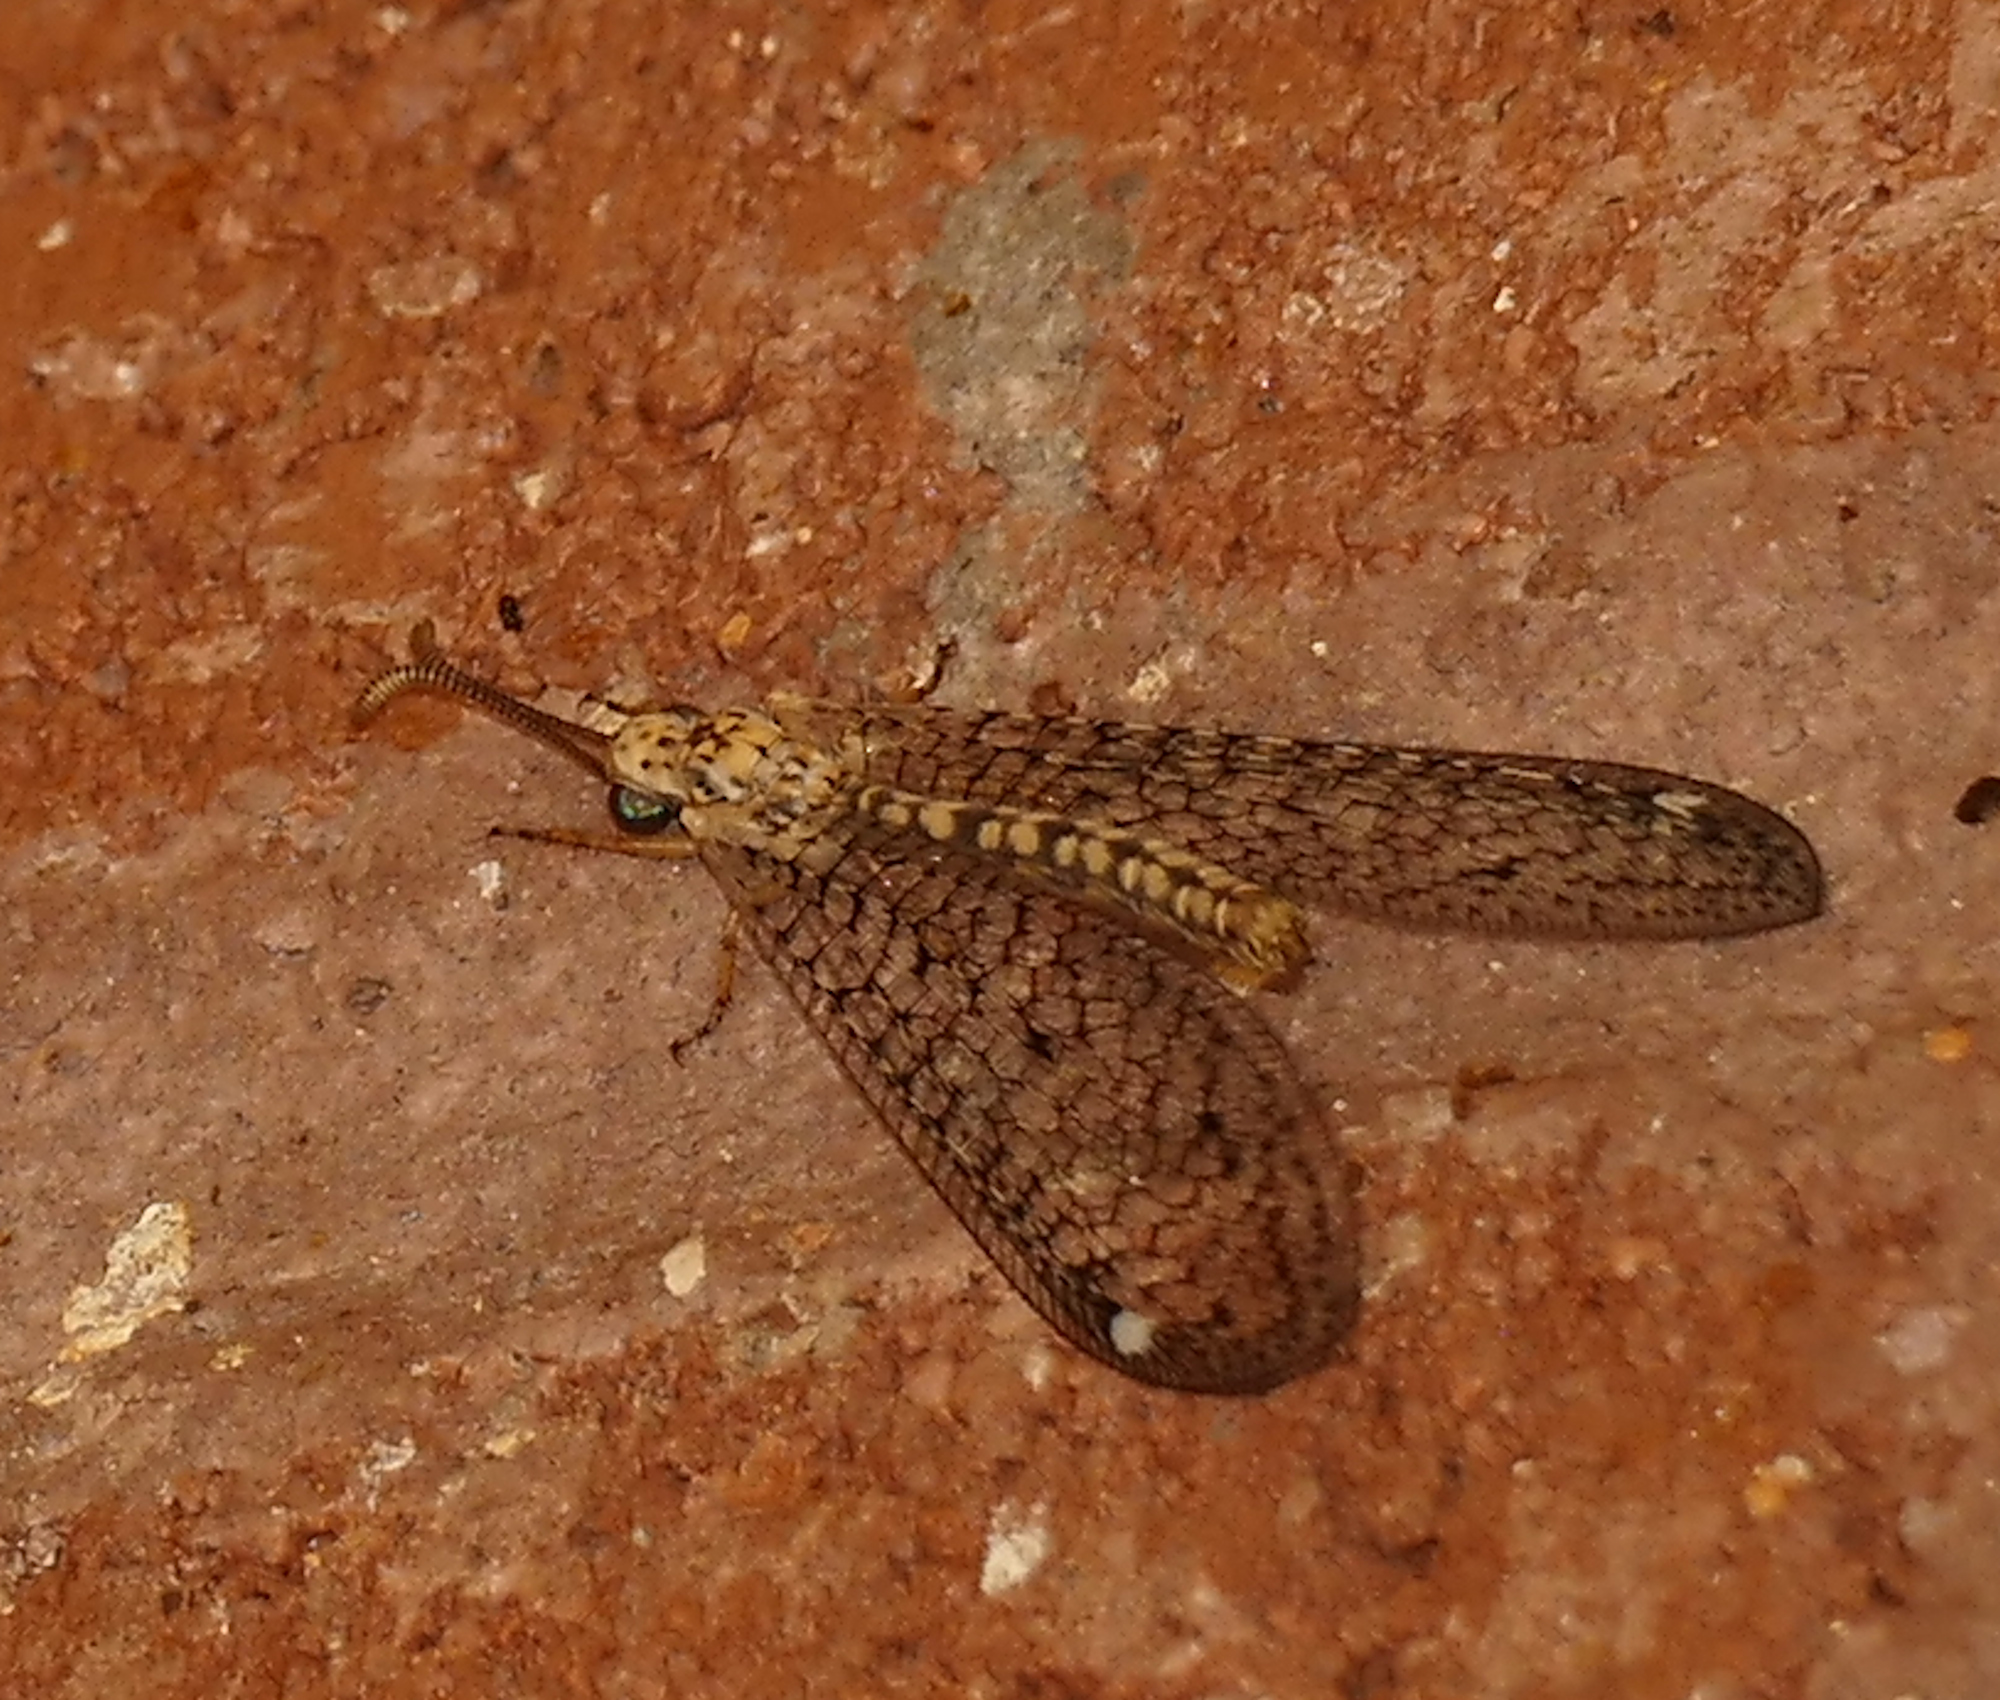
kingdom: Animalia
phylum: Arthropoda
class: Insecta
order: Neuroptera
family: Myrmeleontidae
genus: Scotoleon
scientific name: Scotoleon expansus
